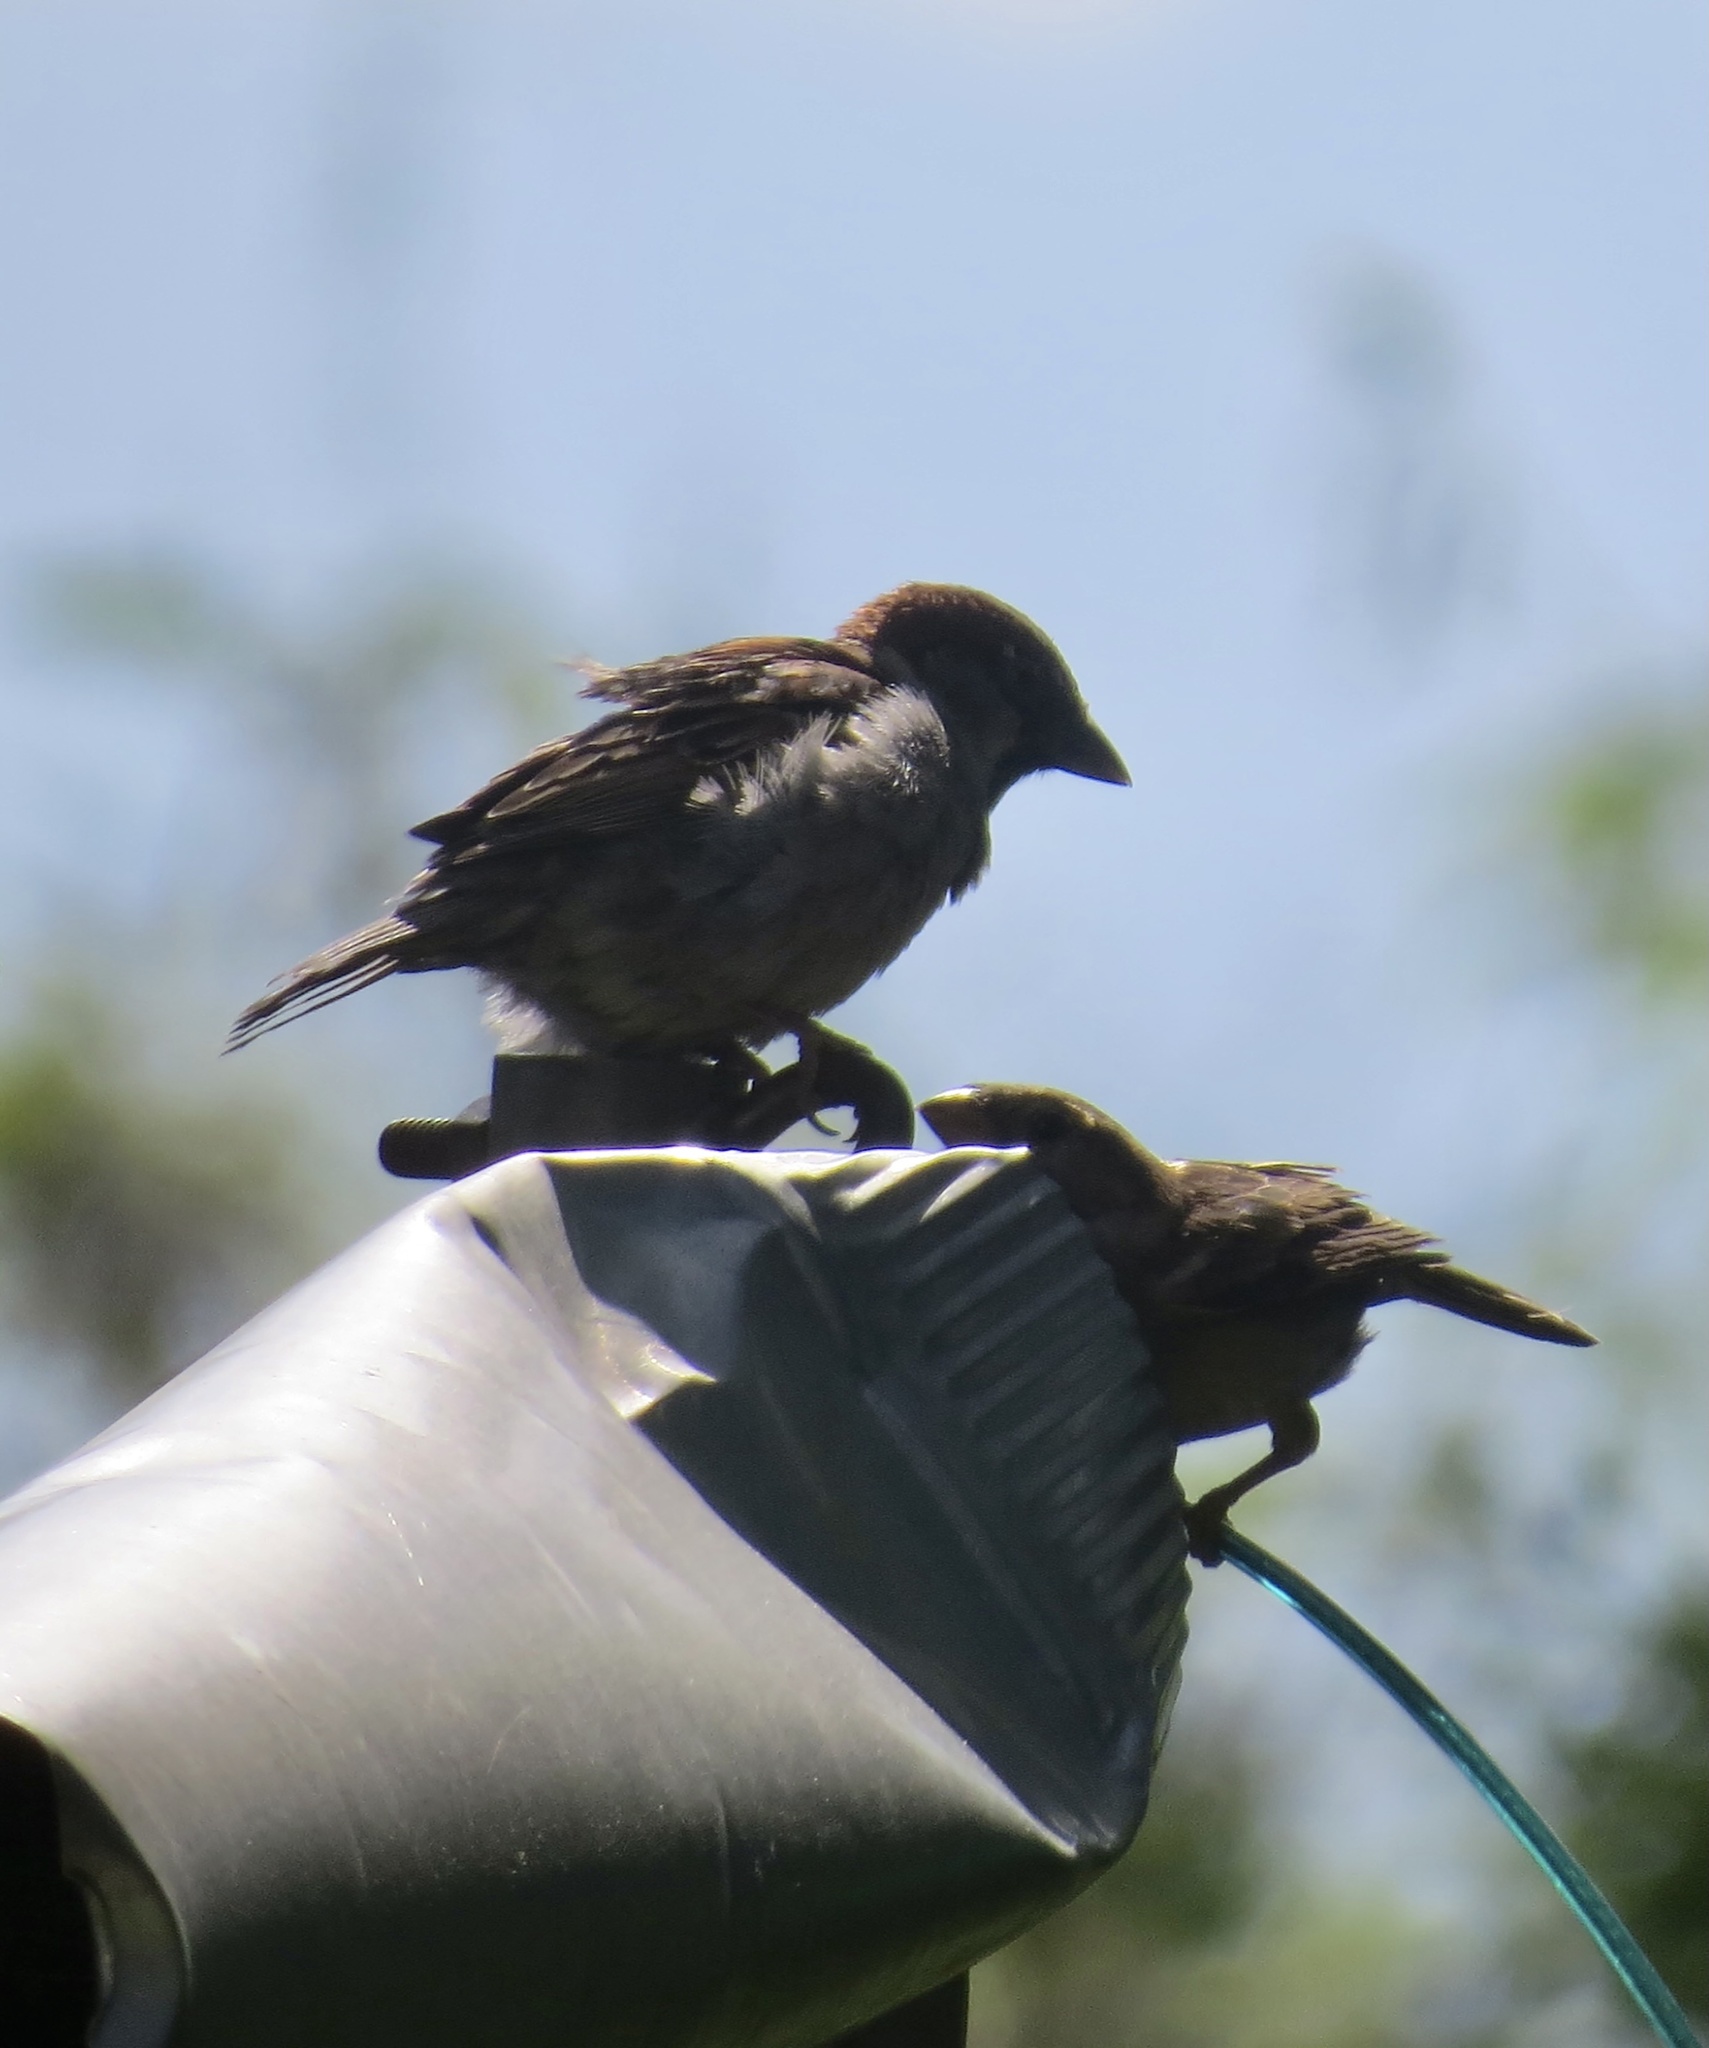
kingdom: Animalia
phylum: Chordata
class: Aves
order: Passeriformes
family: Passeridae
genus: Passer
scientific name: Passer domesticus
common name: House sparrow
